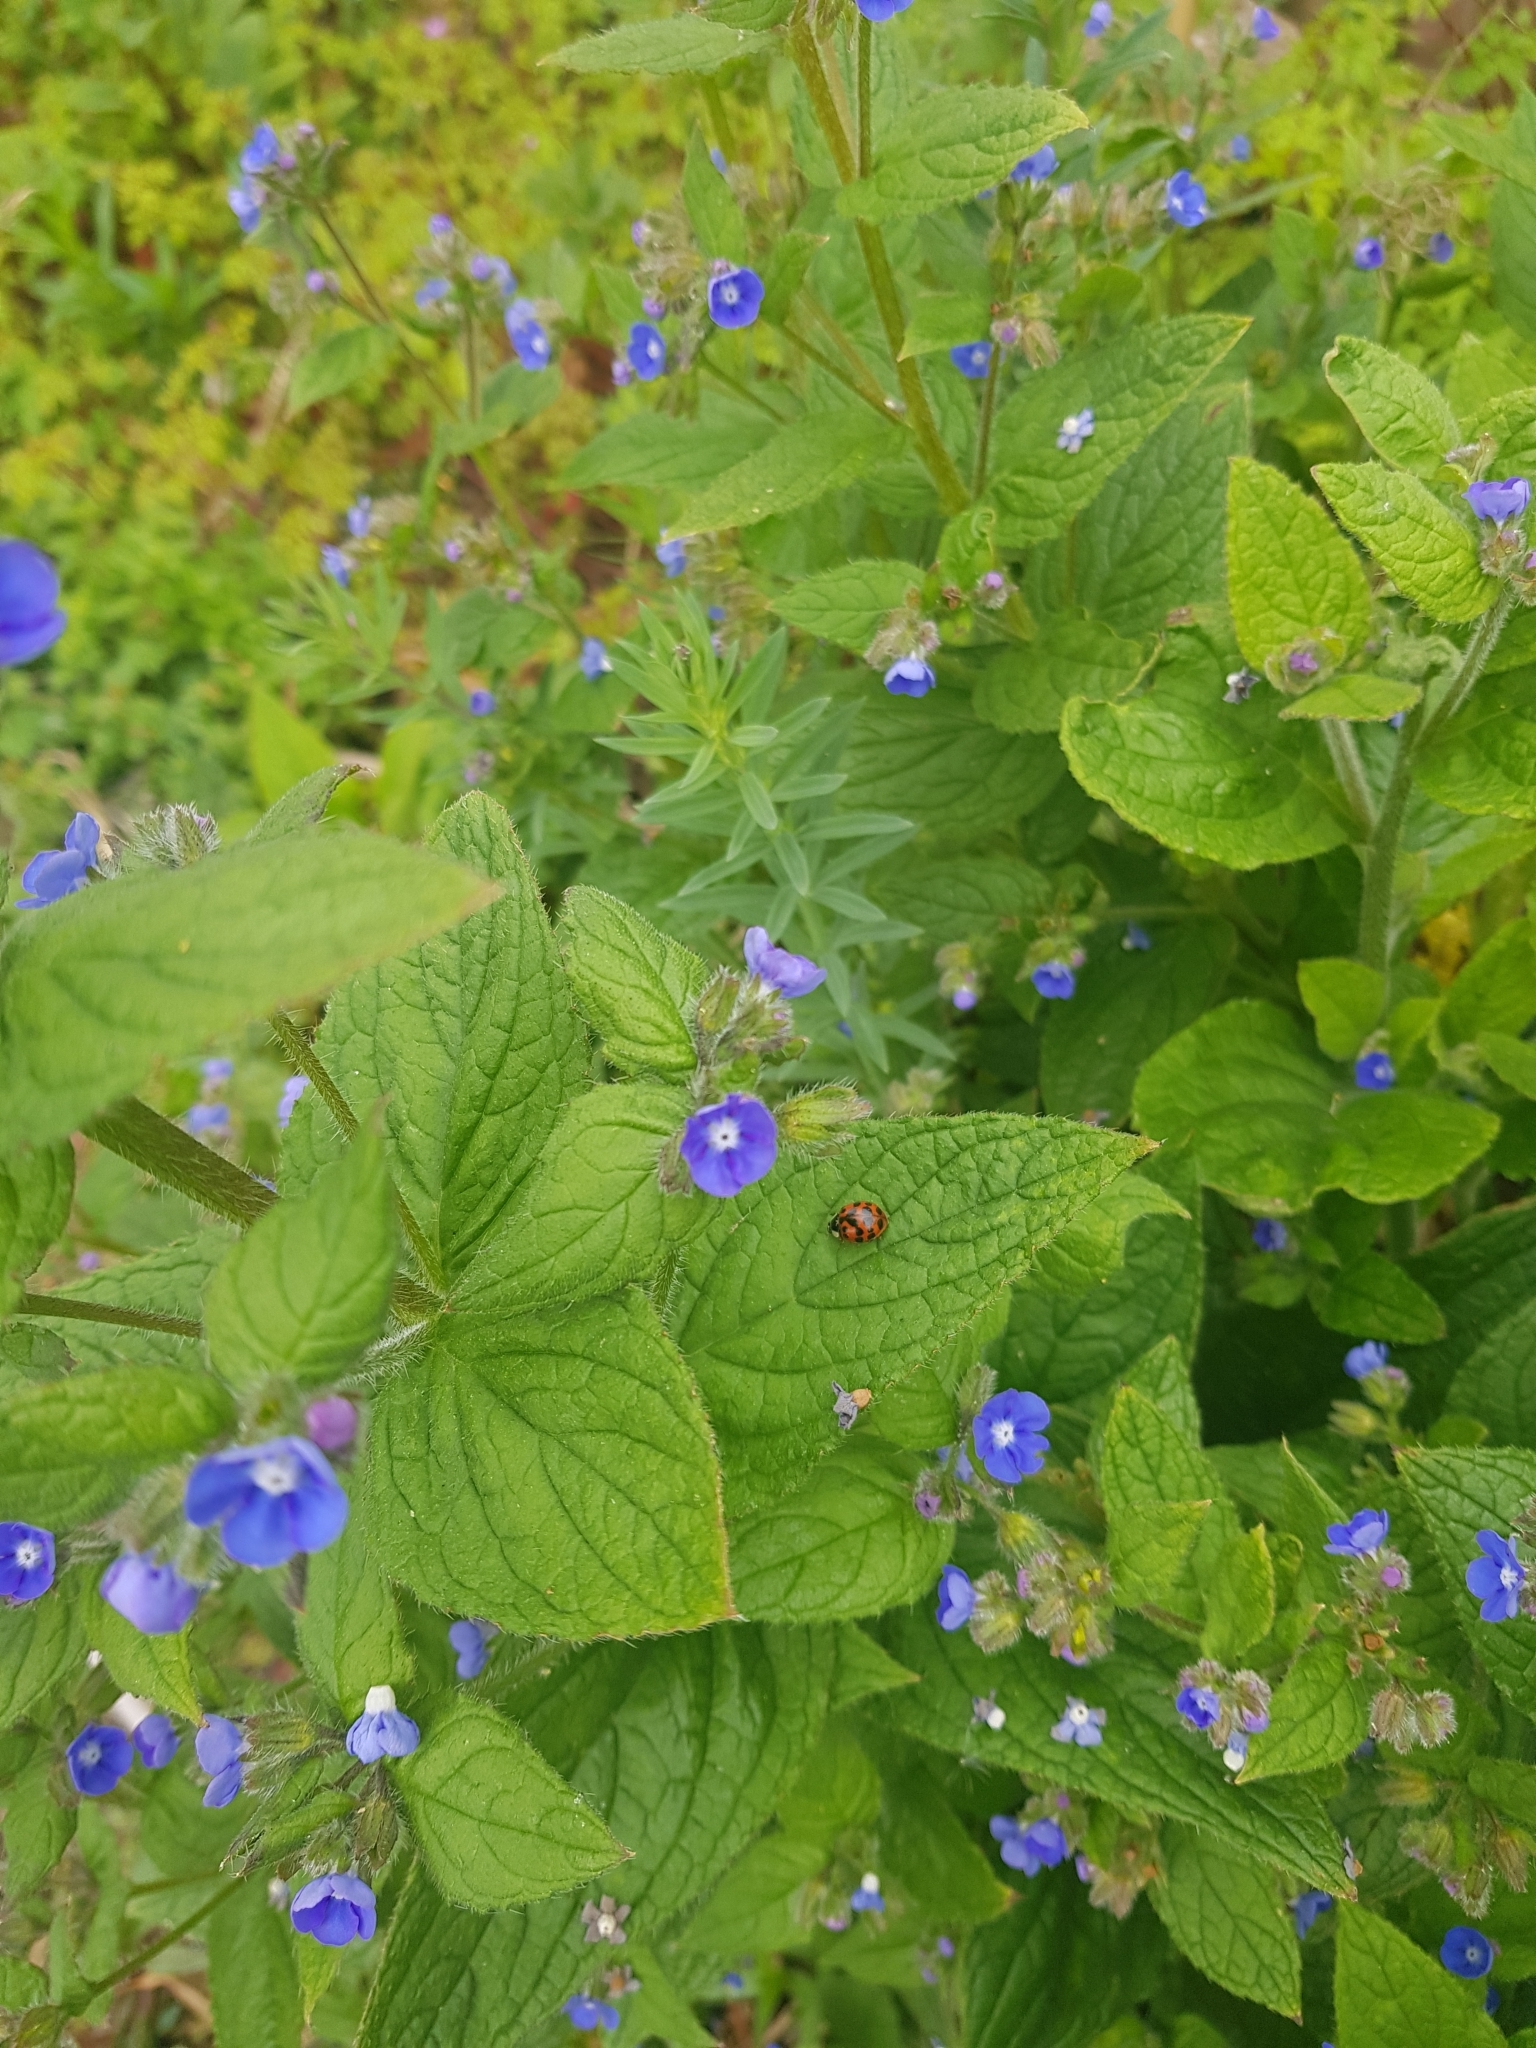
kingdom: Animalia
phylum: Arthropoda
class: Insecta
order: Coleoptera
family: Coccinellidae
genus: Harmonia
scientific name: Harmonia axyridis
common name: Harlequin ladybird
